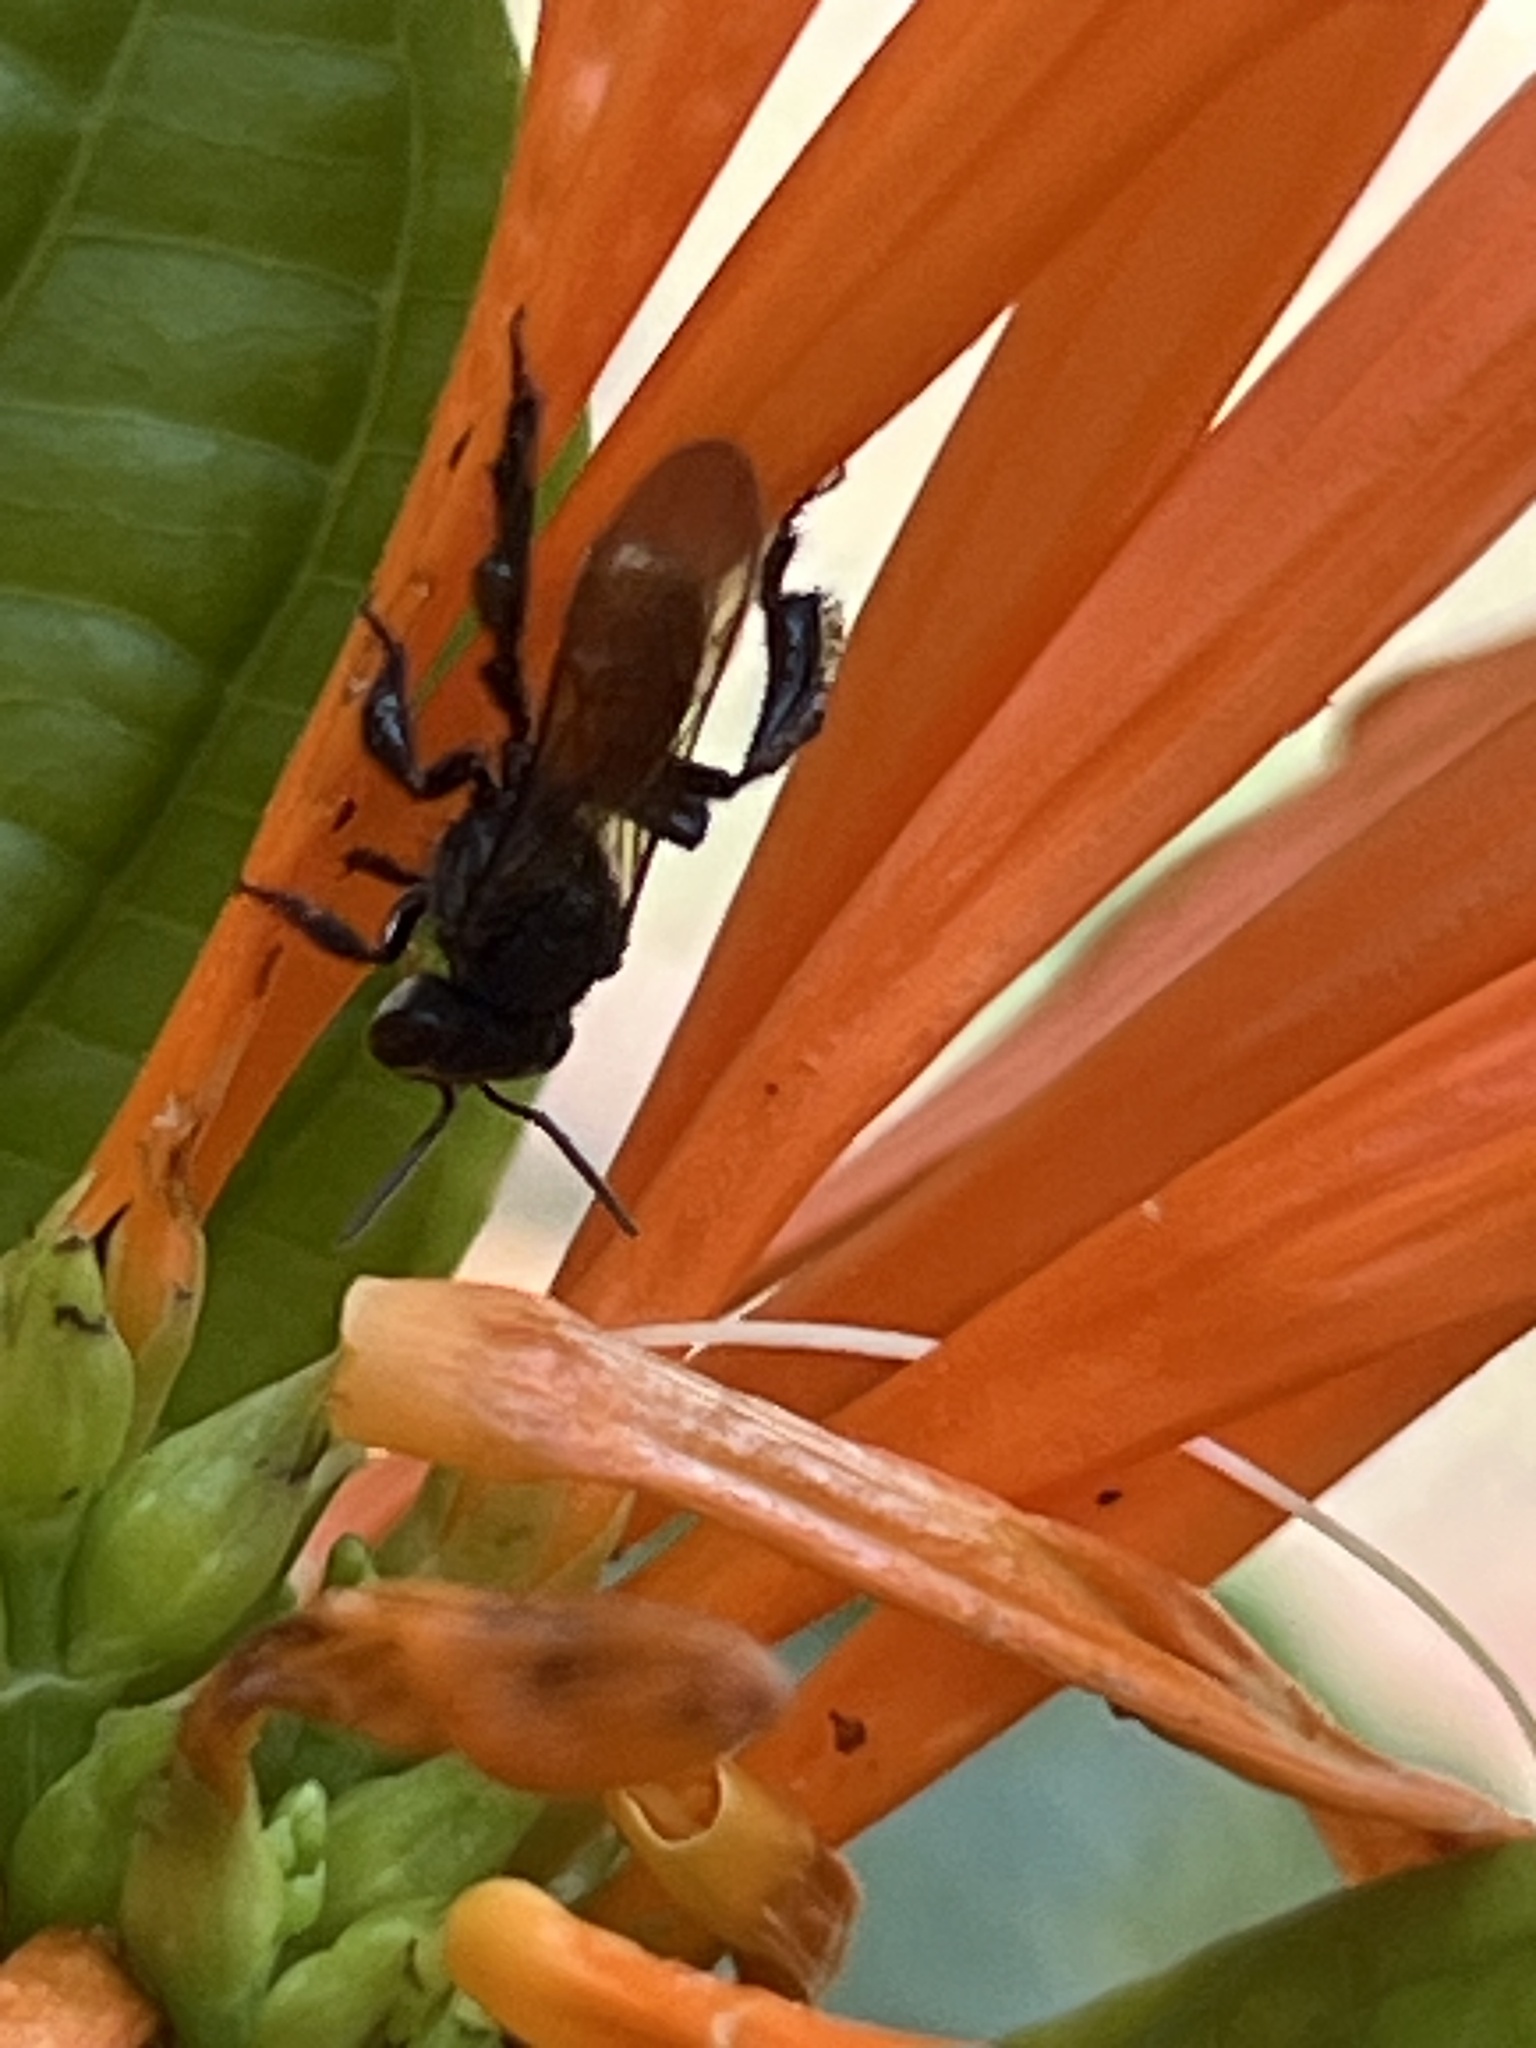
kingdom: Animalia
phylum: Arthropoda
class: Insecta
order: Hymenoptera
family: Apidae
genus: Trigona
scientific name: Trigona fulviventris
